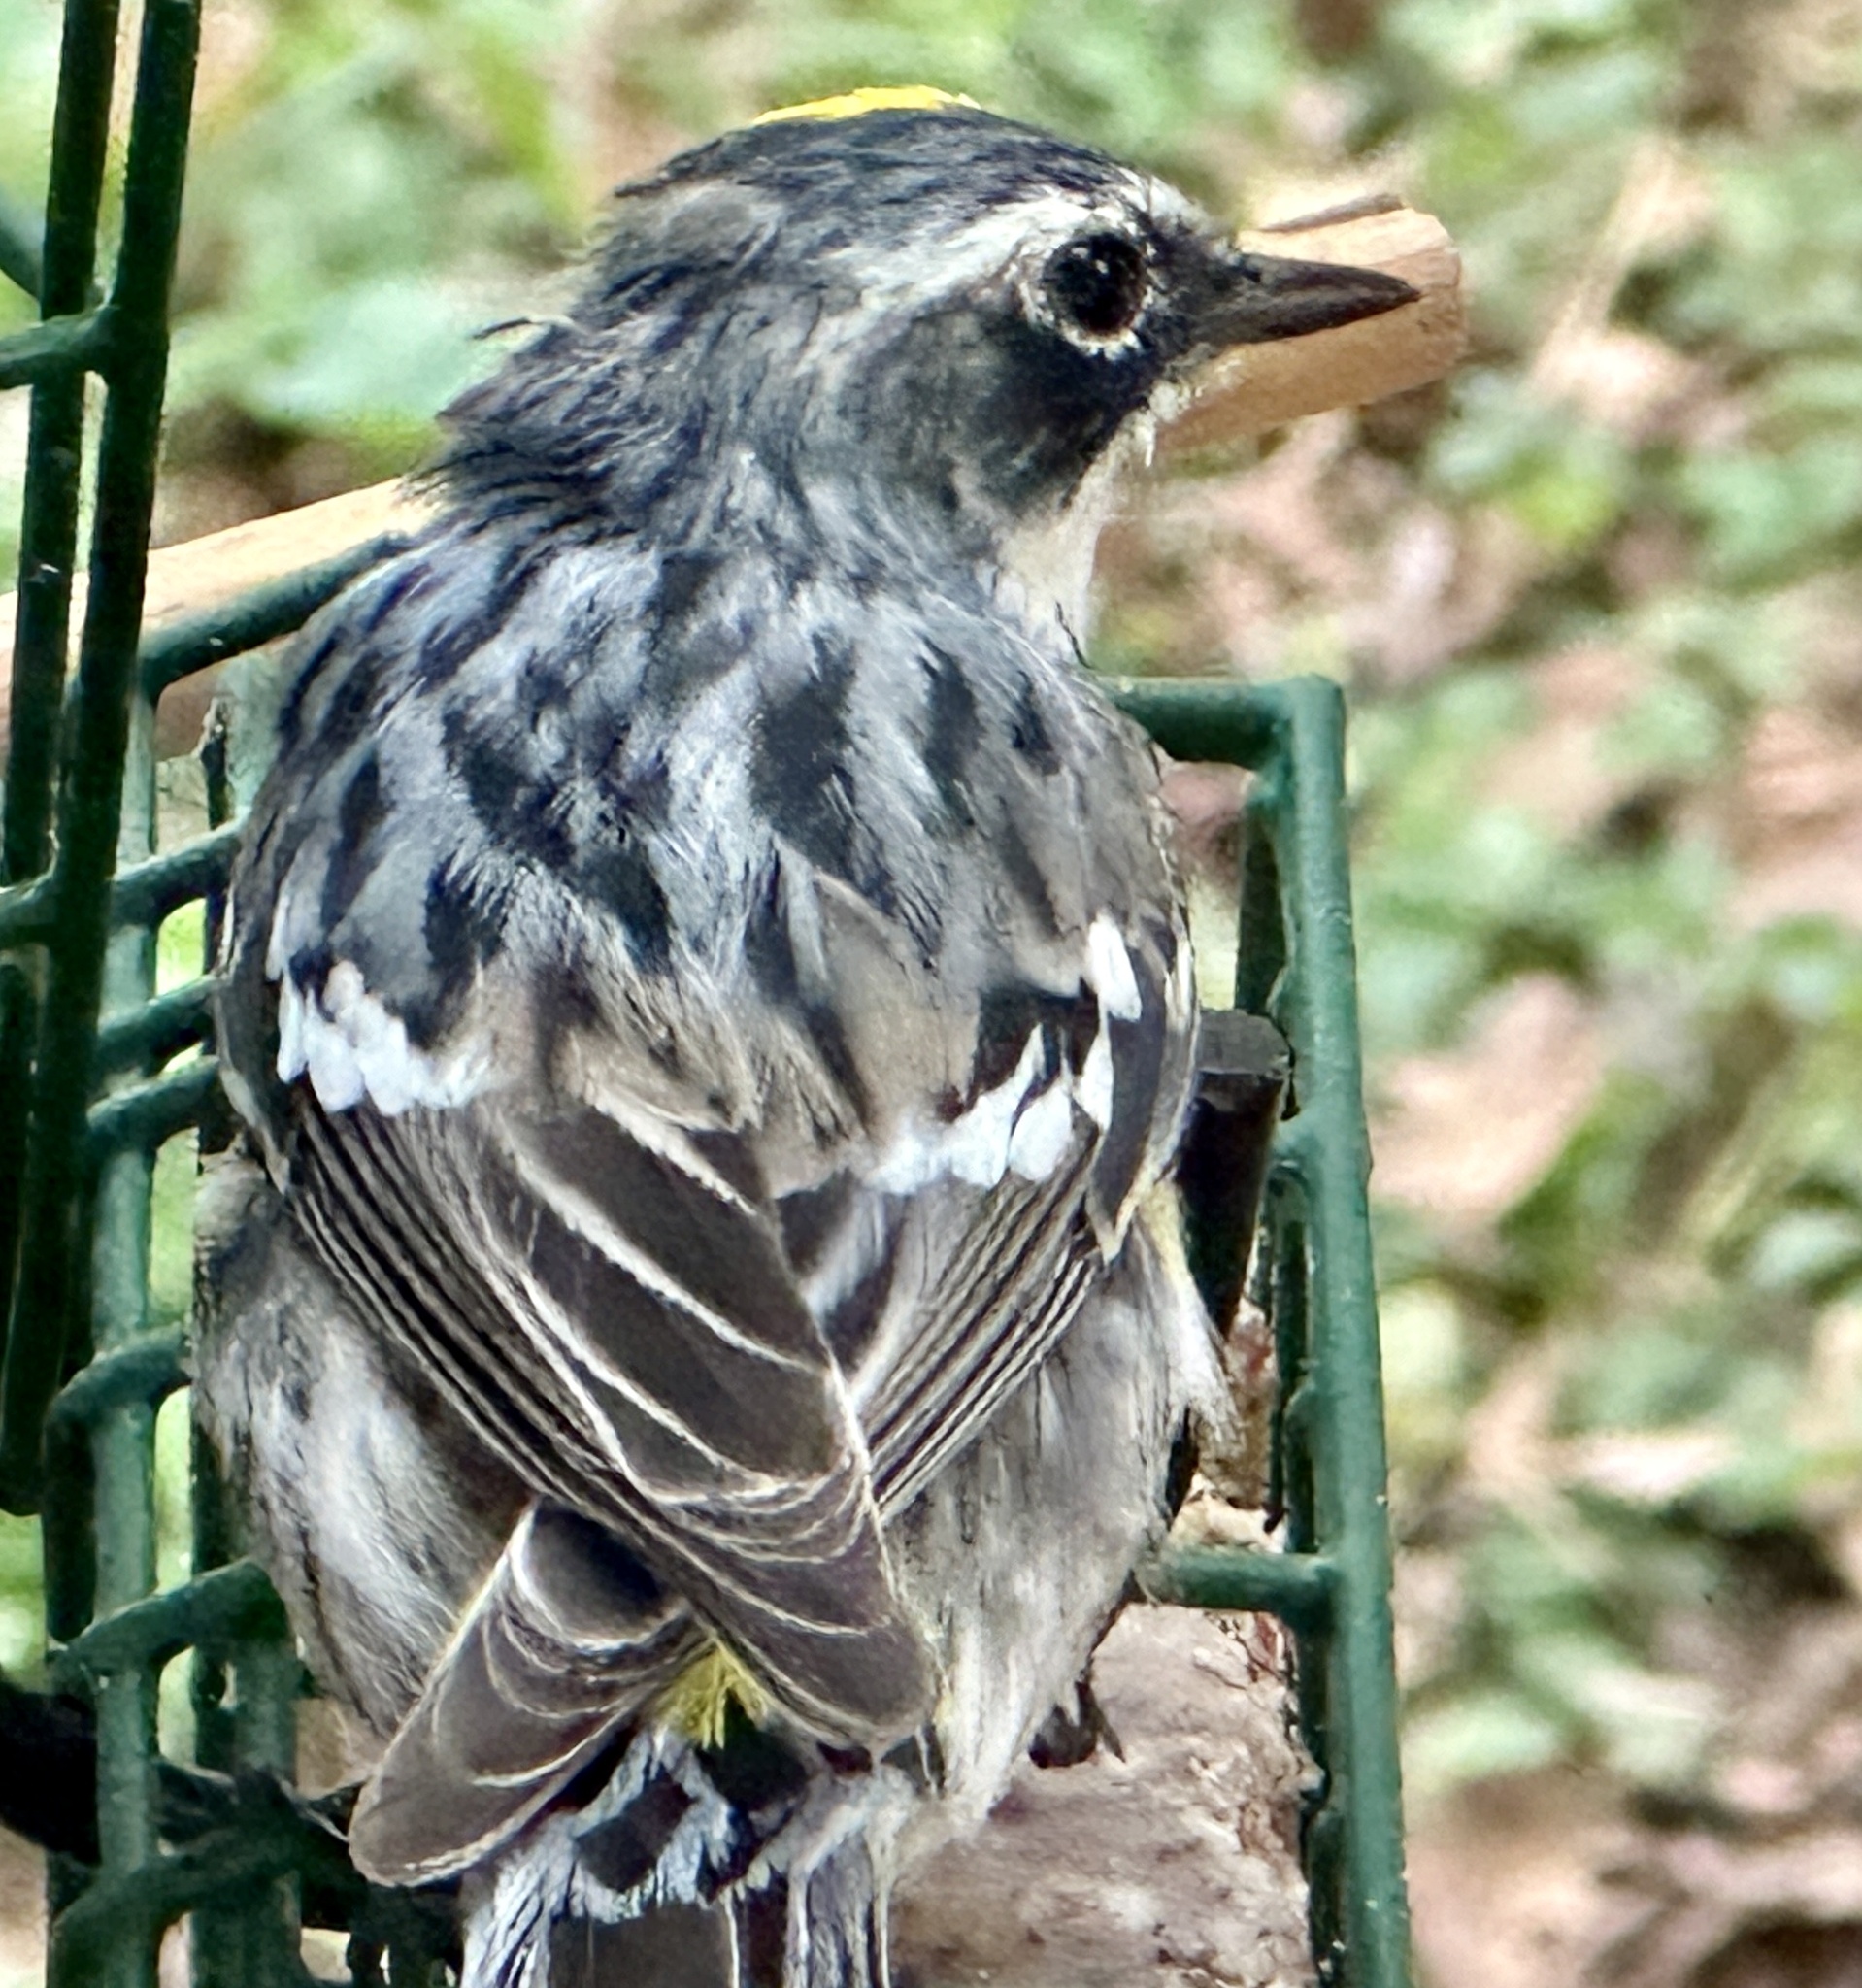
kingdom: Animalia
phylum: Chordata
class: Aves
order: Passeriformes
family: Parulidae
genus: Setophaga
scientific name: Setophaga coronata
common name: Myrtle warbler
